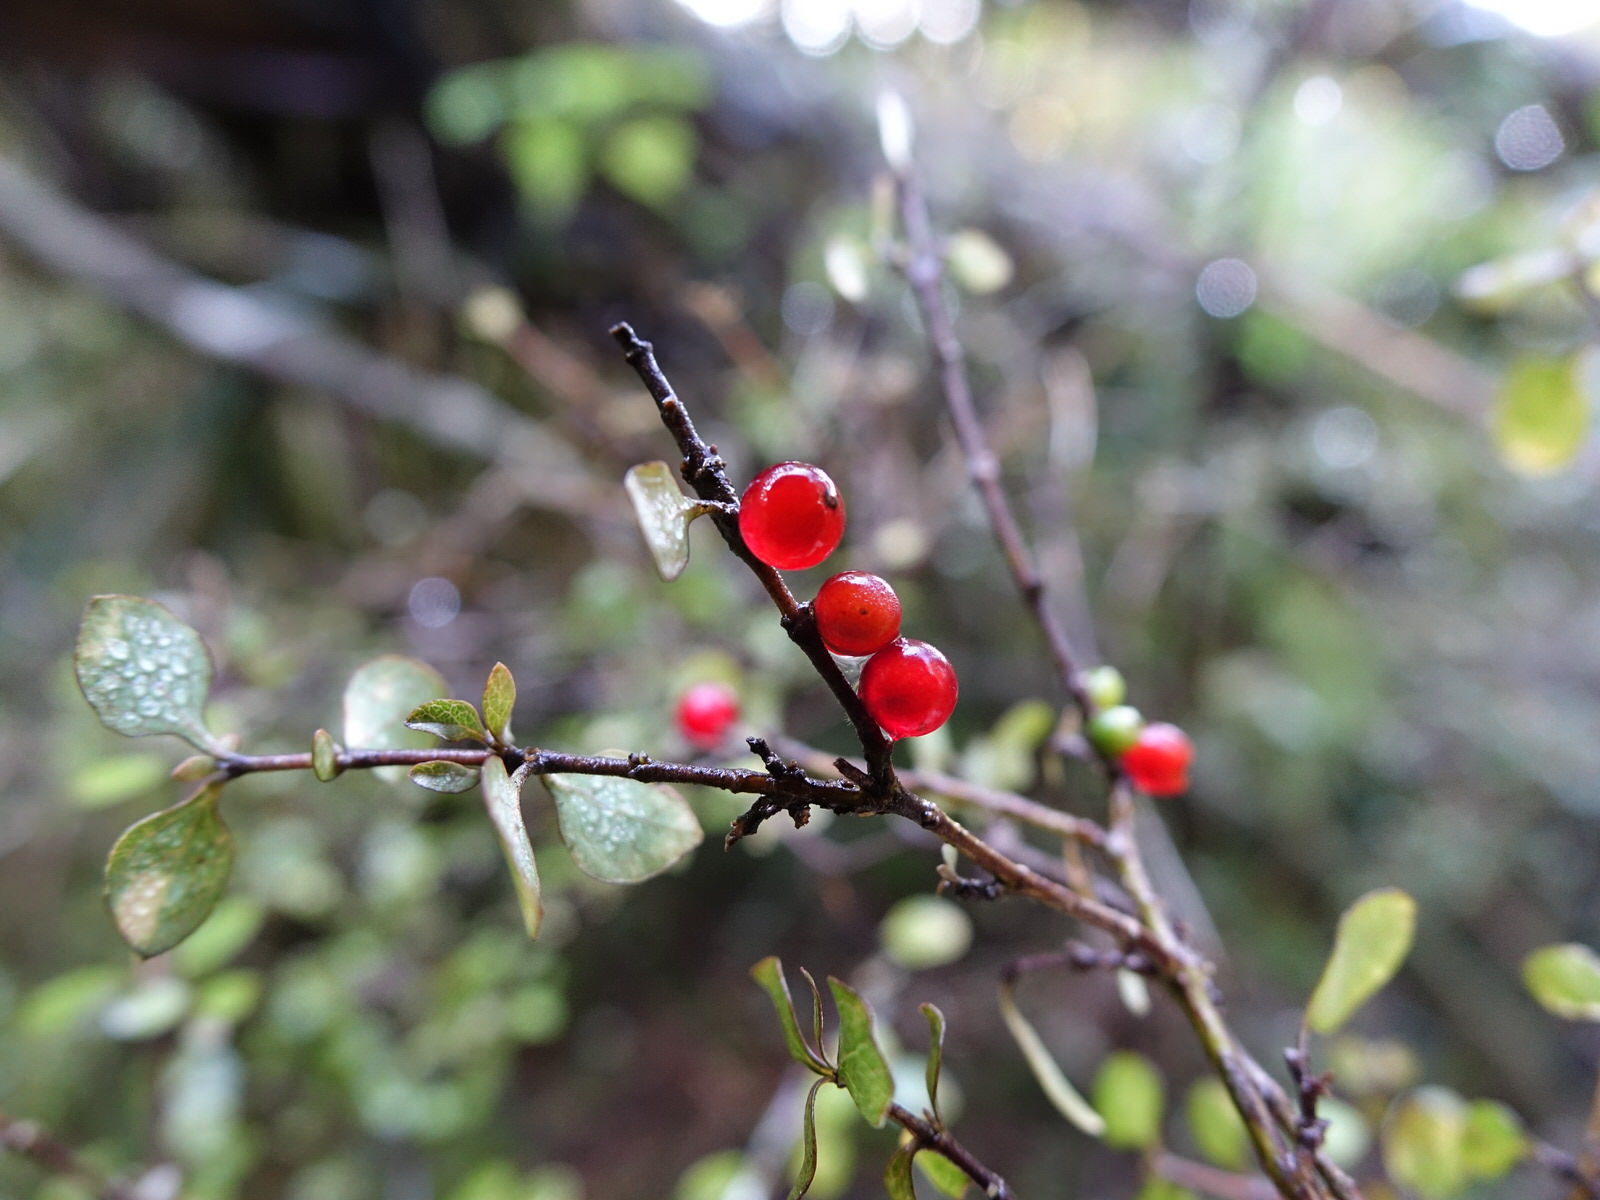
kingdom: Plantae
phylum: Tracheophyta
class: Magnoliopsida
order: Gentianales
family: Rubiaceae
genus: Coprosma
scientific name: Coprosma rhamnoides
